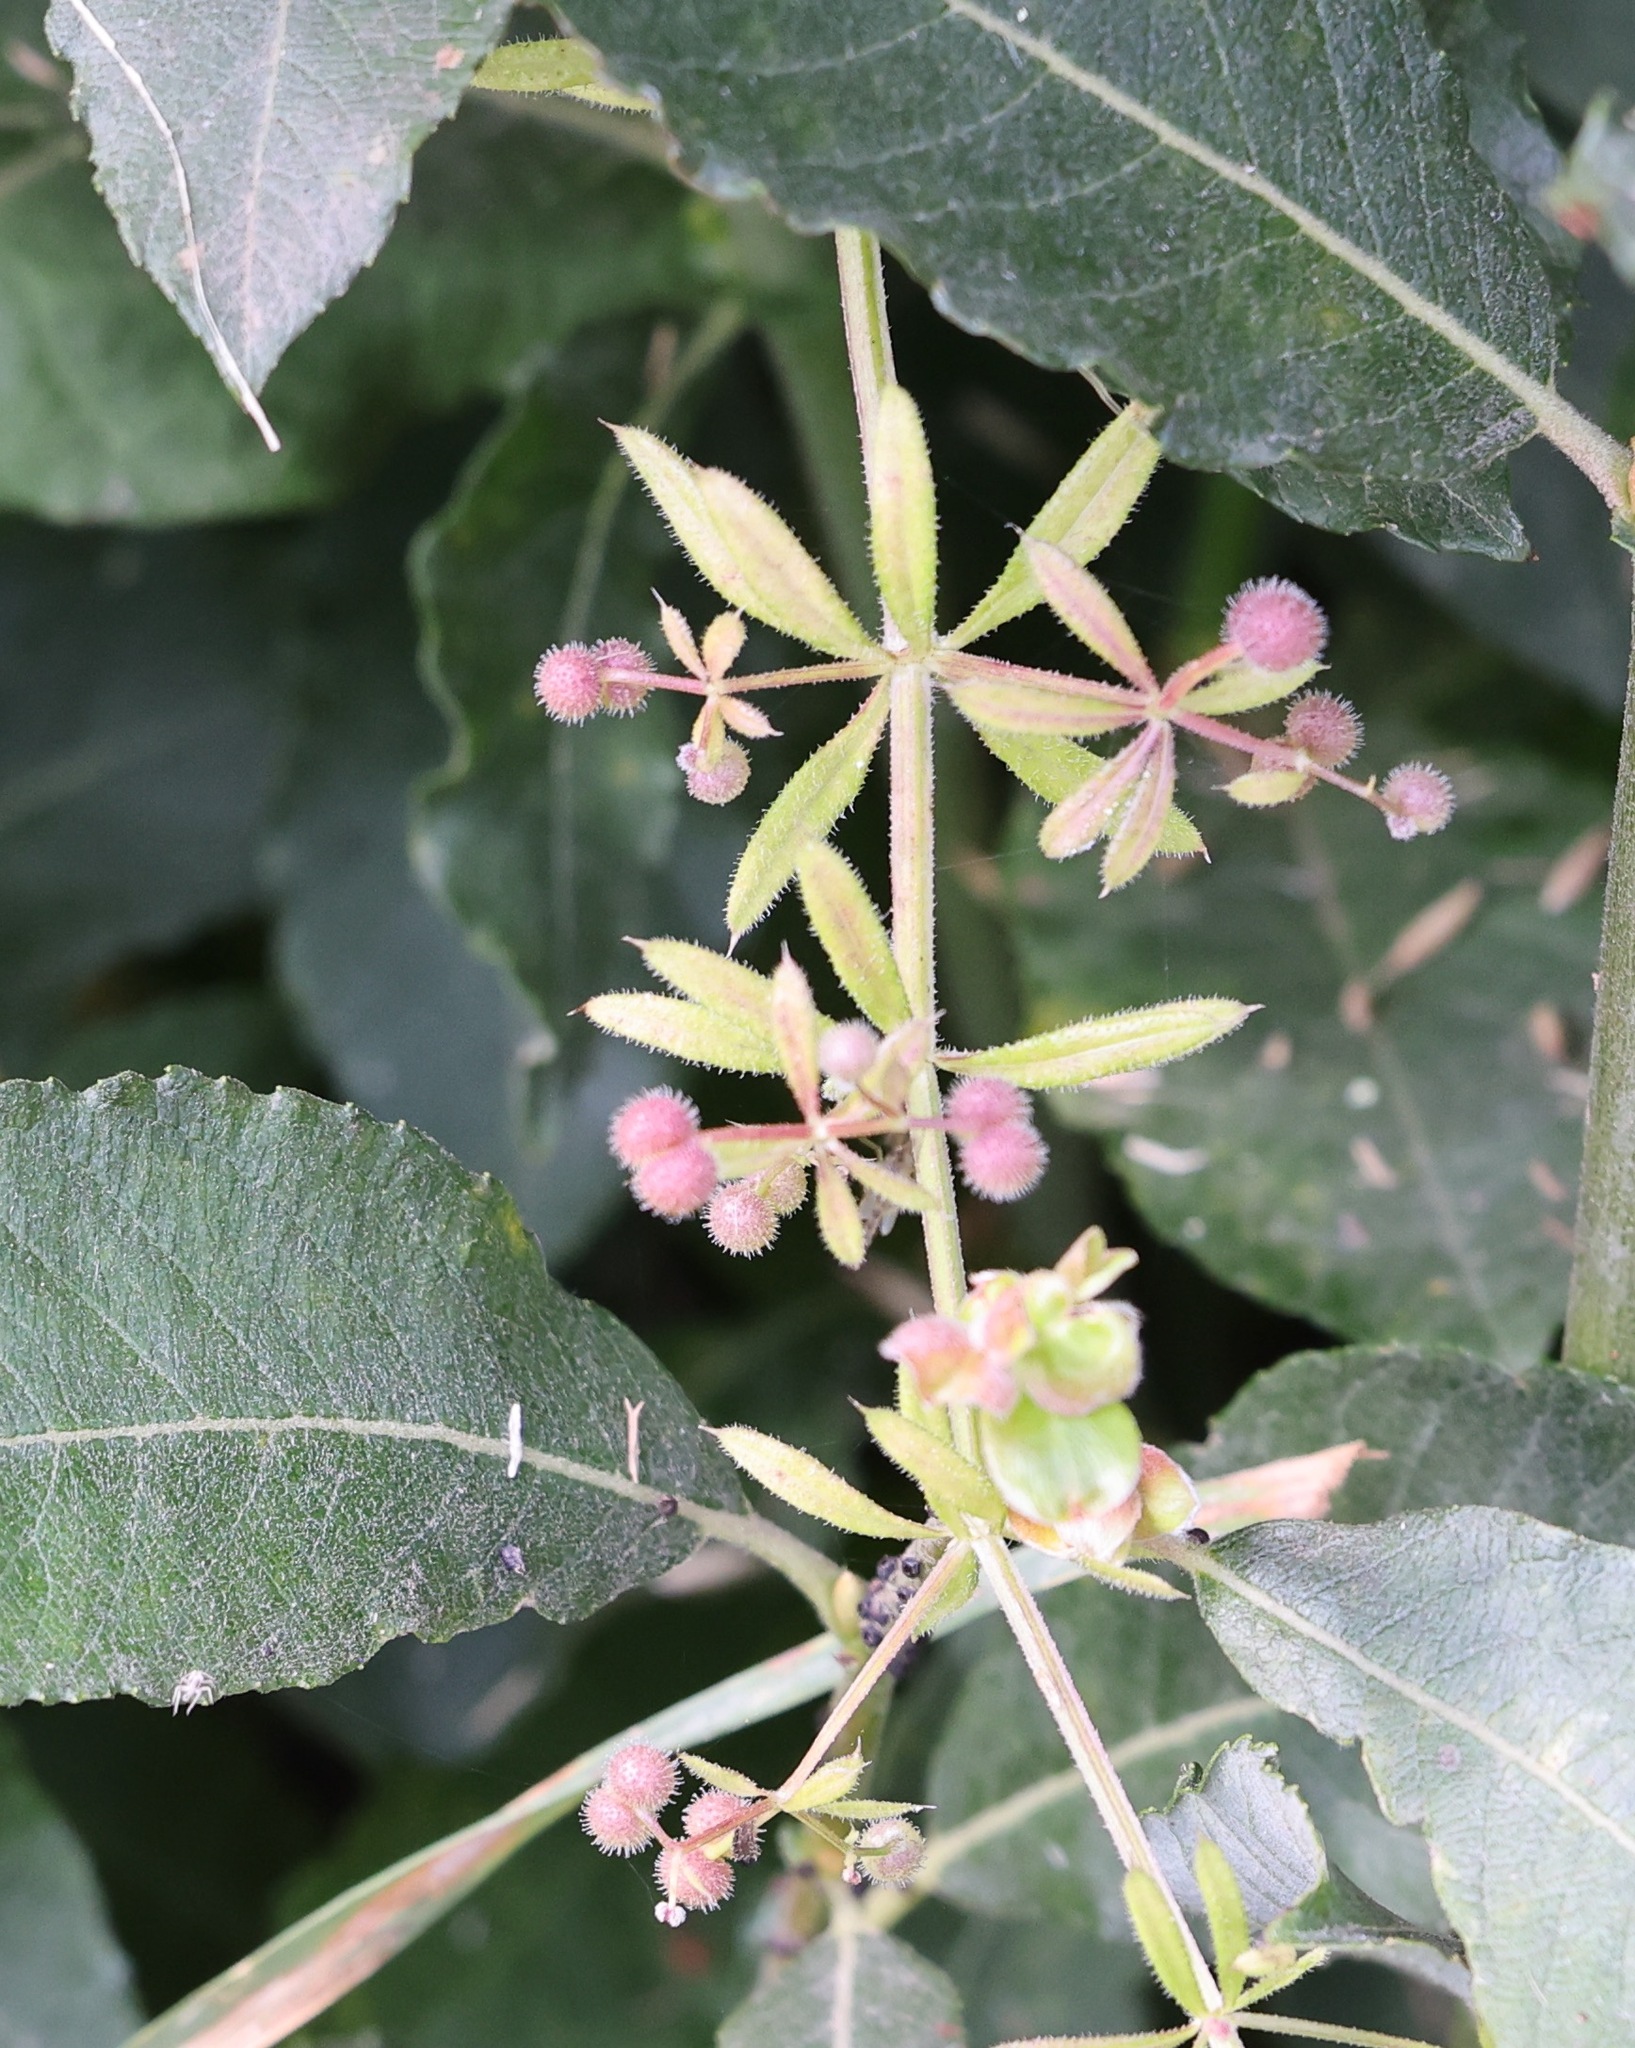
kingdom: Plantae
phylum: Tracheophyta
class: Magnoliopsida
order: Gentianales
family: Rubiaceae
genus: Galium
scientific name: Galium aparine
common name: Cleavers
